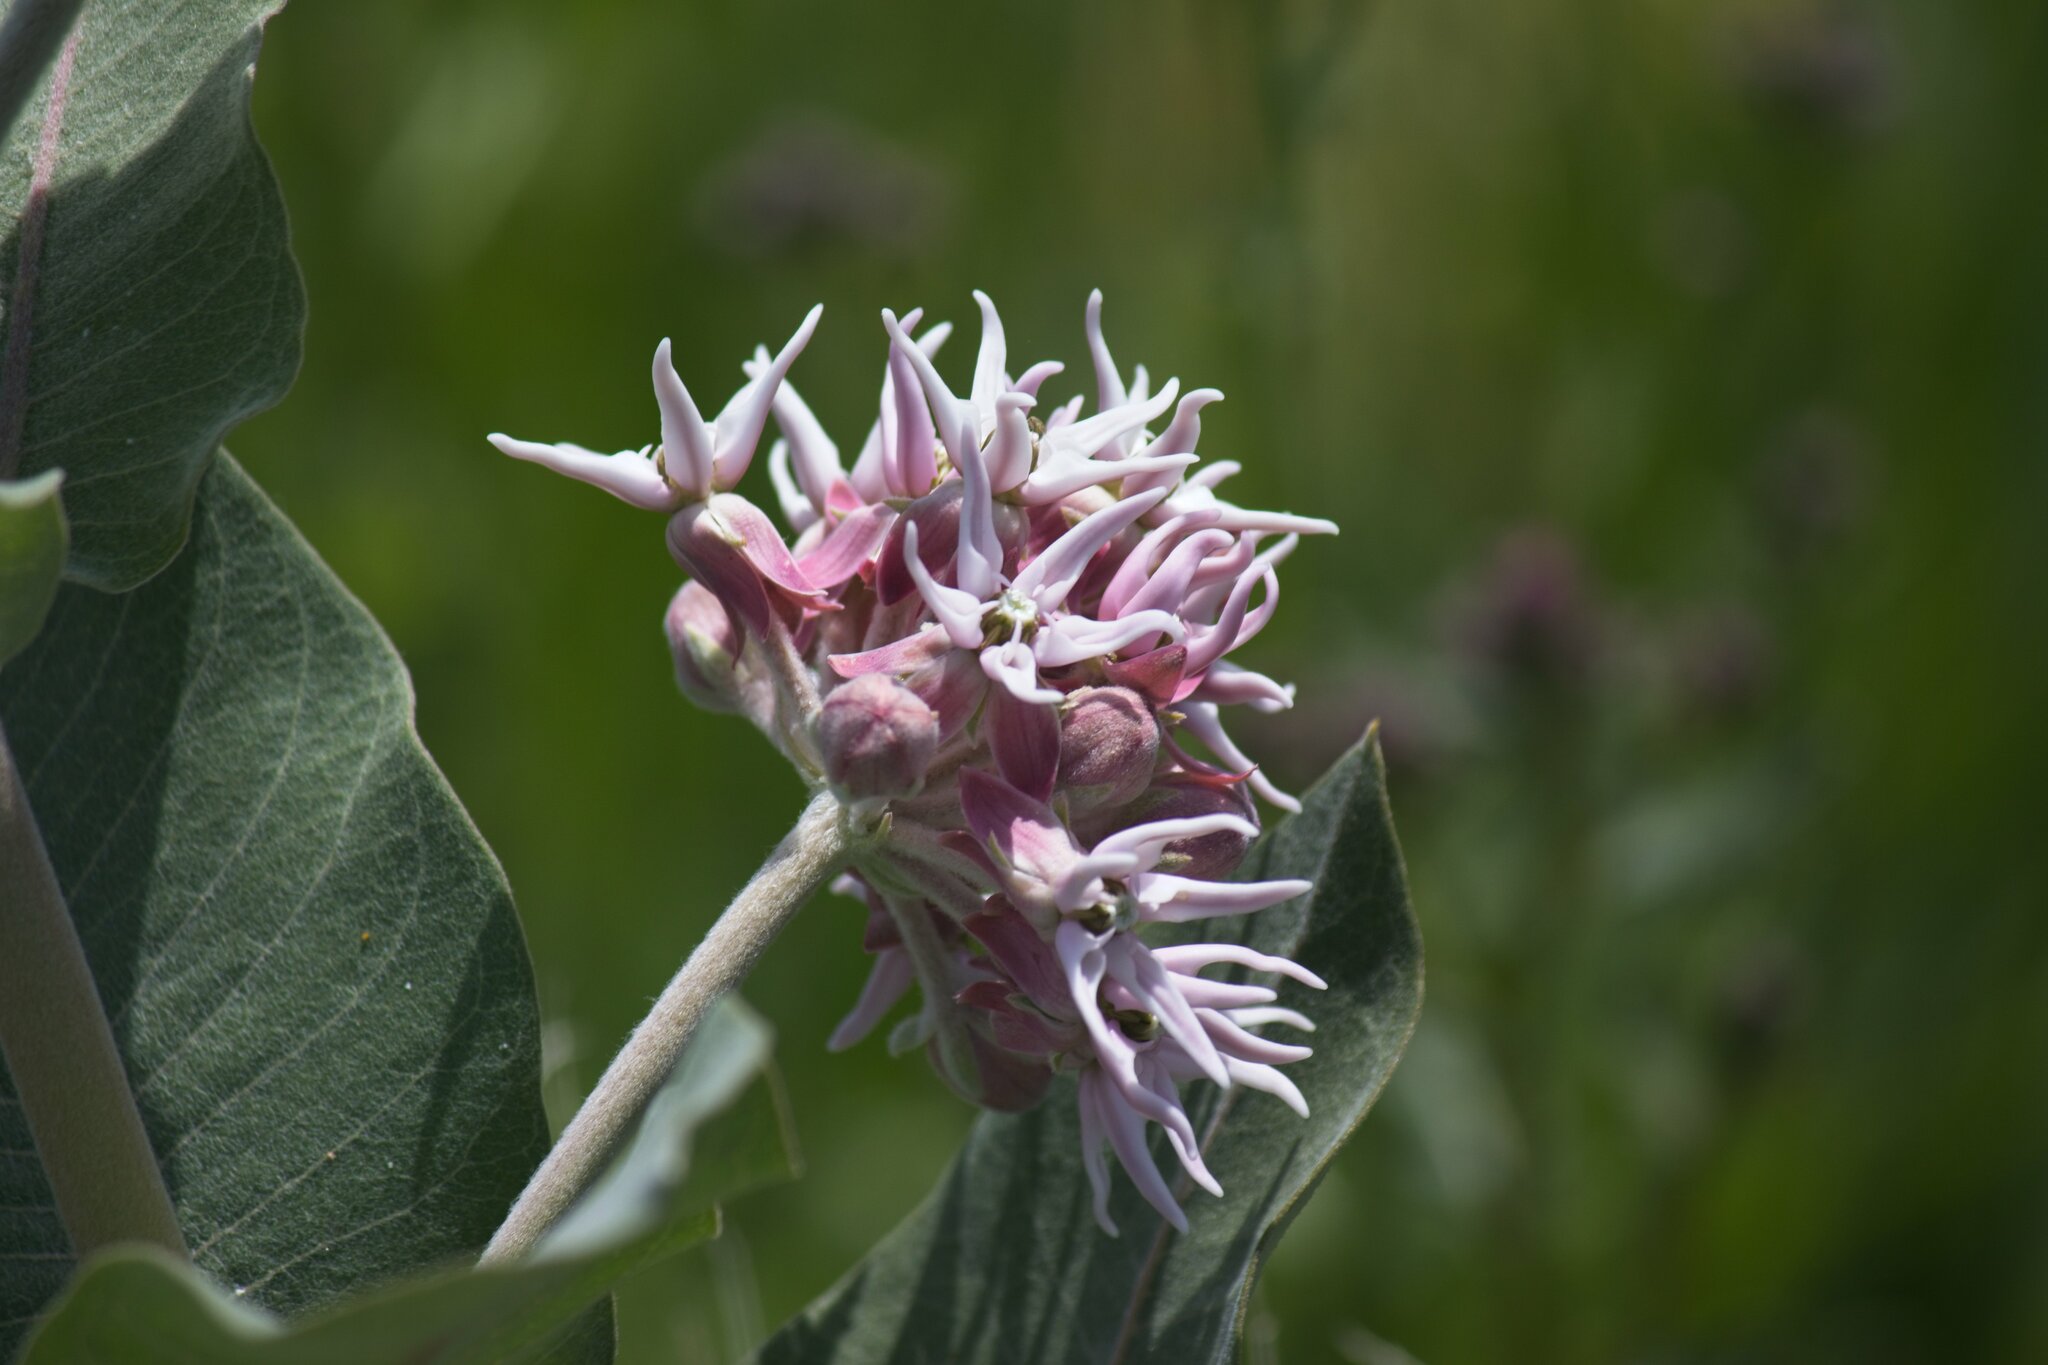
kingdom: Plantae
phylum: Tracheophyta
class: Magnoliopsida
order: Gentianales
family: Apocynaceae
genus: Asclepias
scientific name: Asclepias speciosa
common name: Showy milkweed
